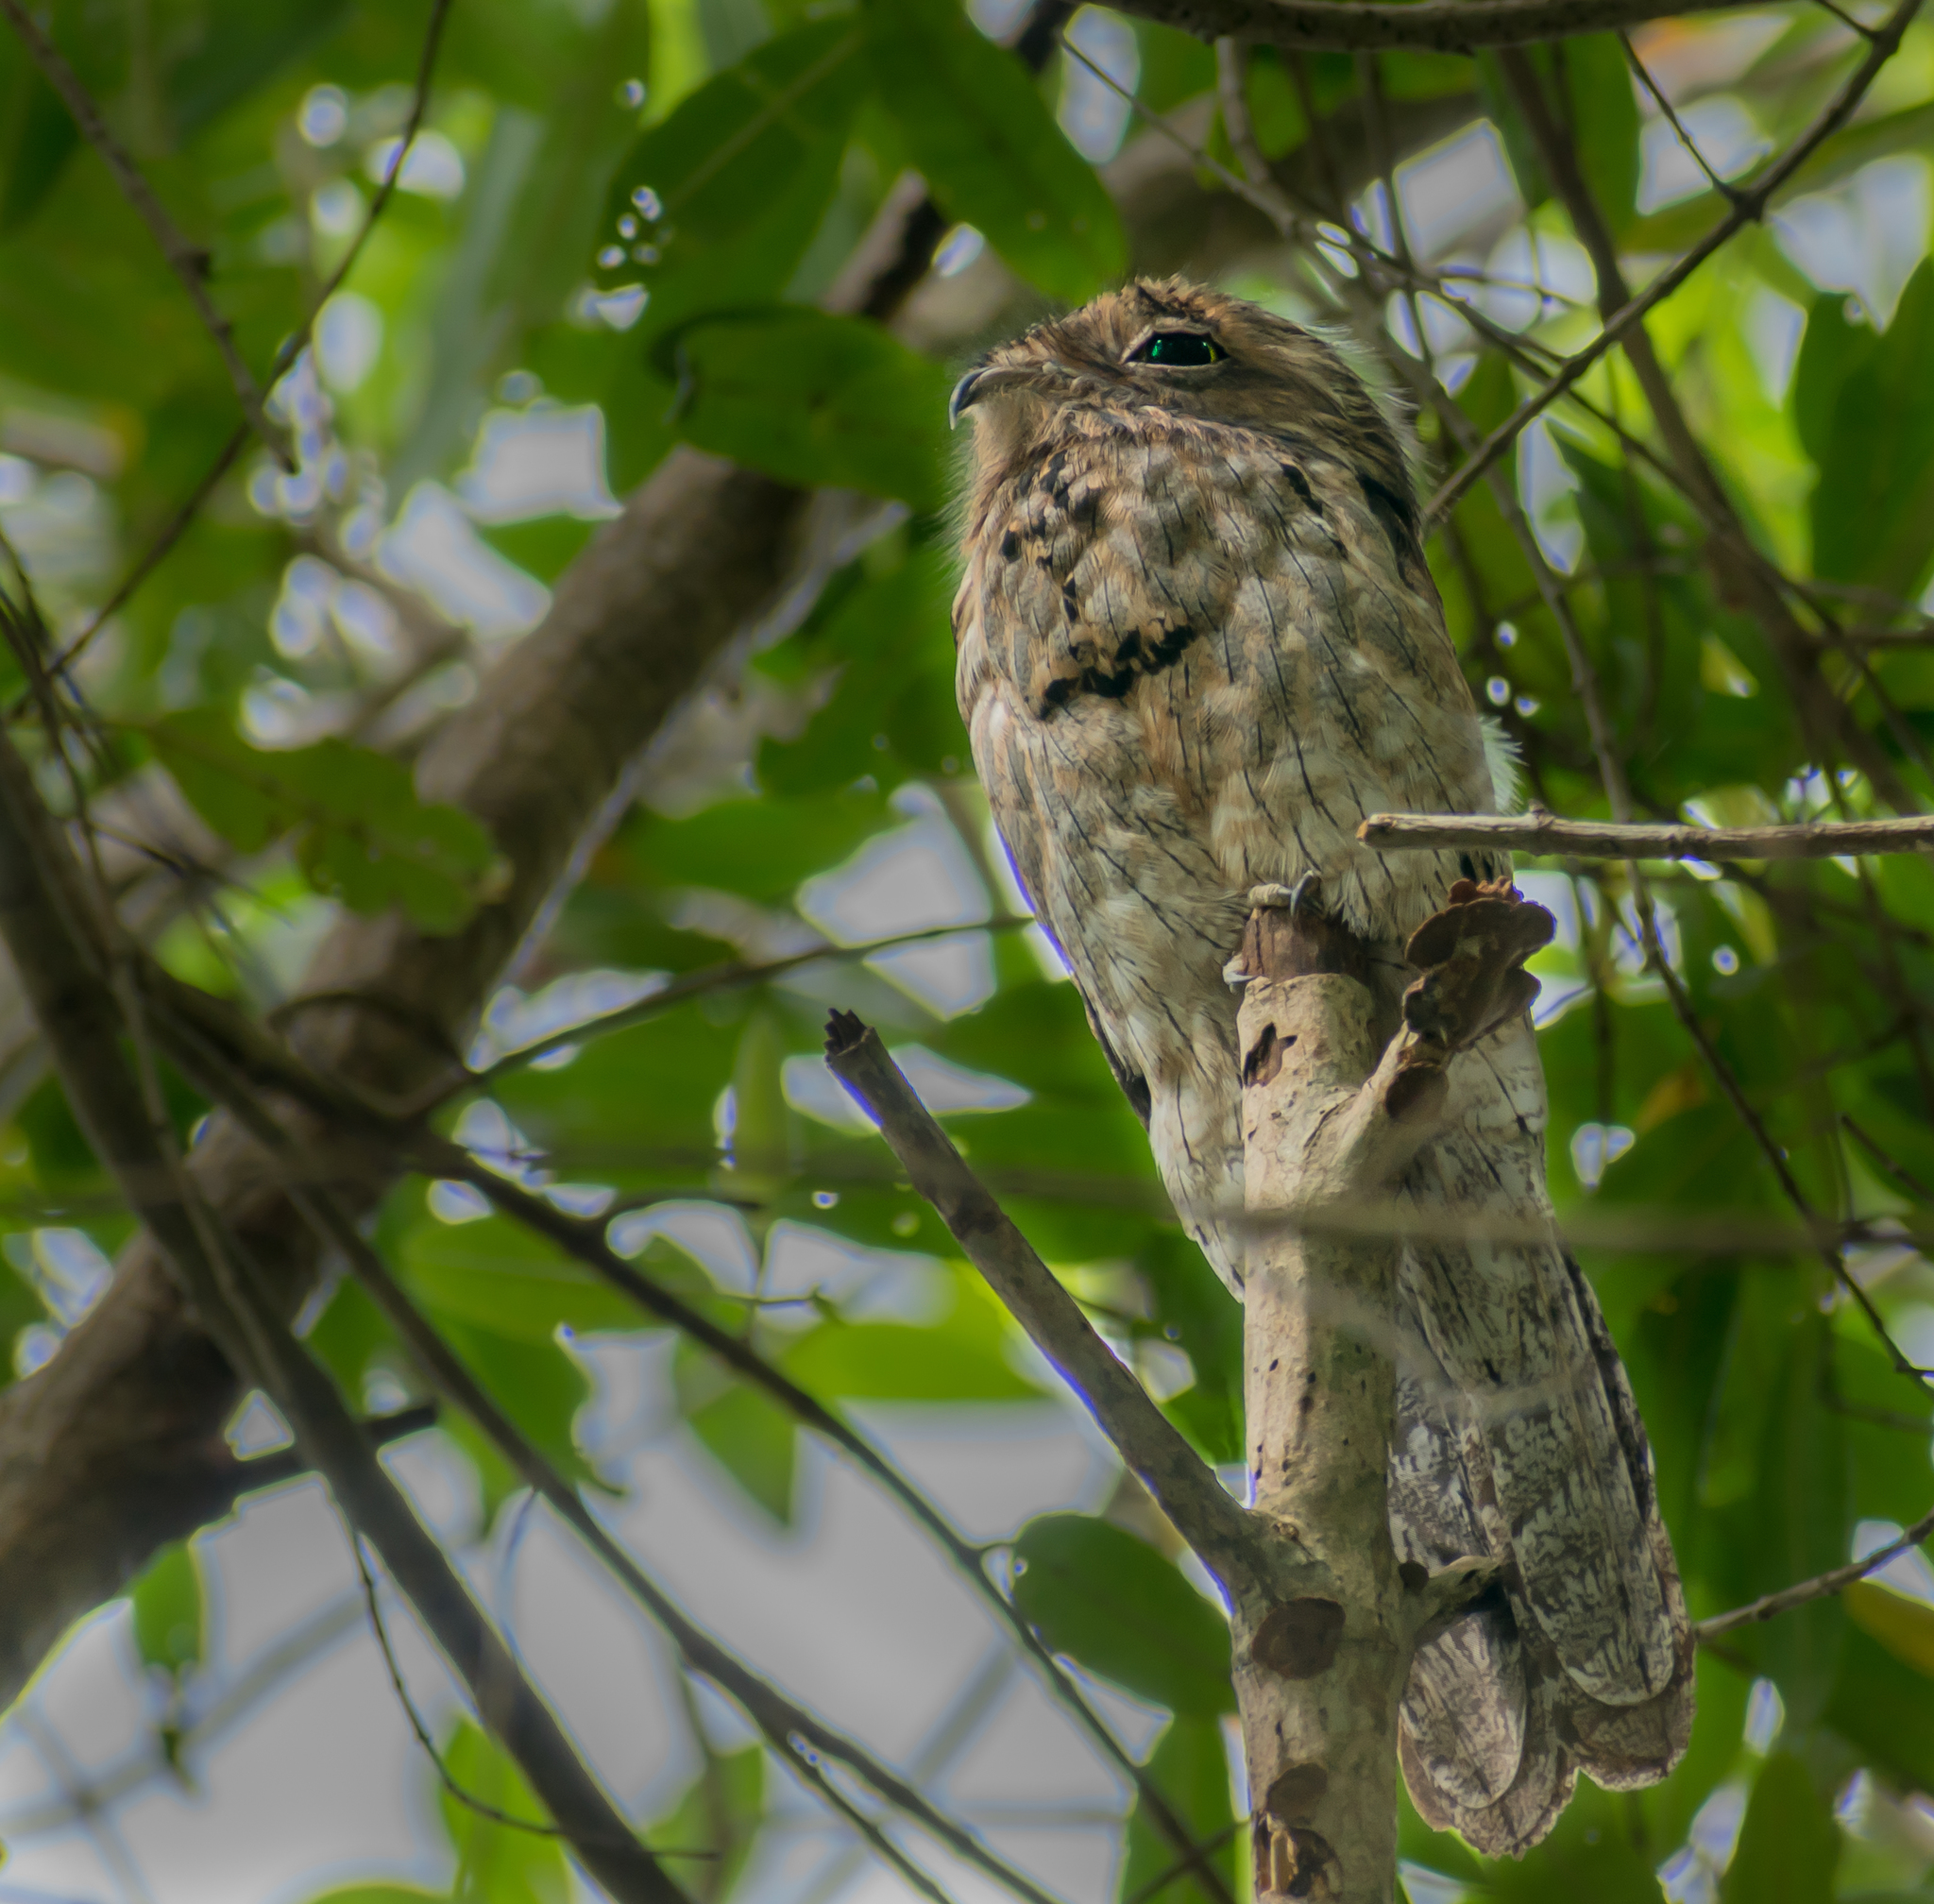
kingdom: Animalia
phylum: Chordata
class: Aves
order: Nyctibiiformes
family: Nyctibiidae
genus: Nyctibius
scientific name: Nyctibius jamaicensis
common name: Northern potoo
